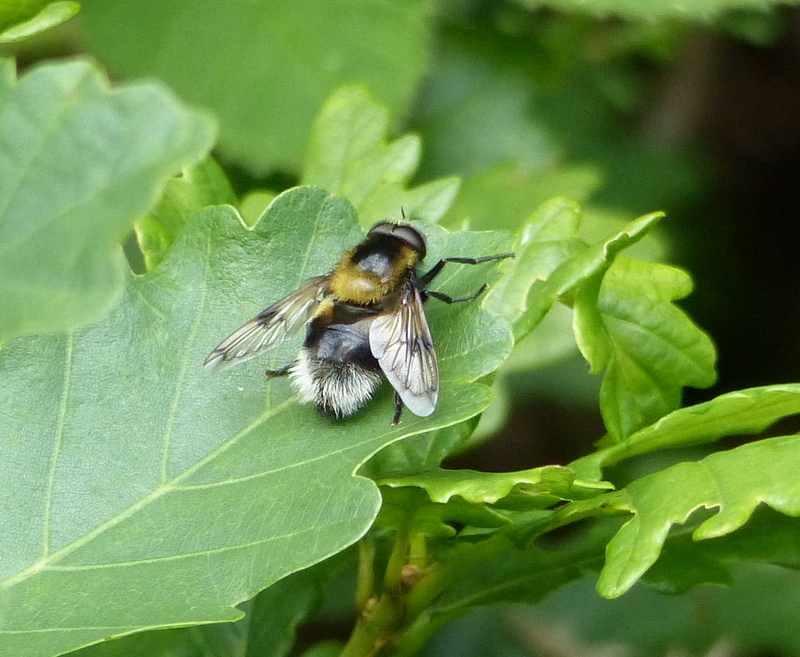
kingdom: Animalia
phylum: Arthropoda
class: Insecta
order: Diptera
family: Syrphidae
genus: Volucella
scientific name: Volucella bombylans
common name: Bumble bee hover fly
